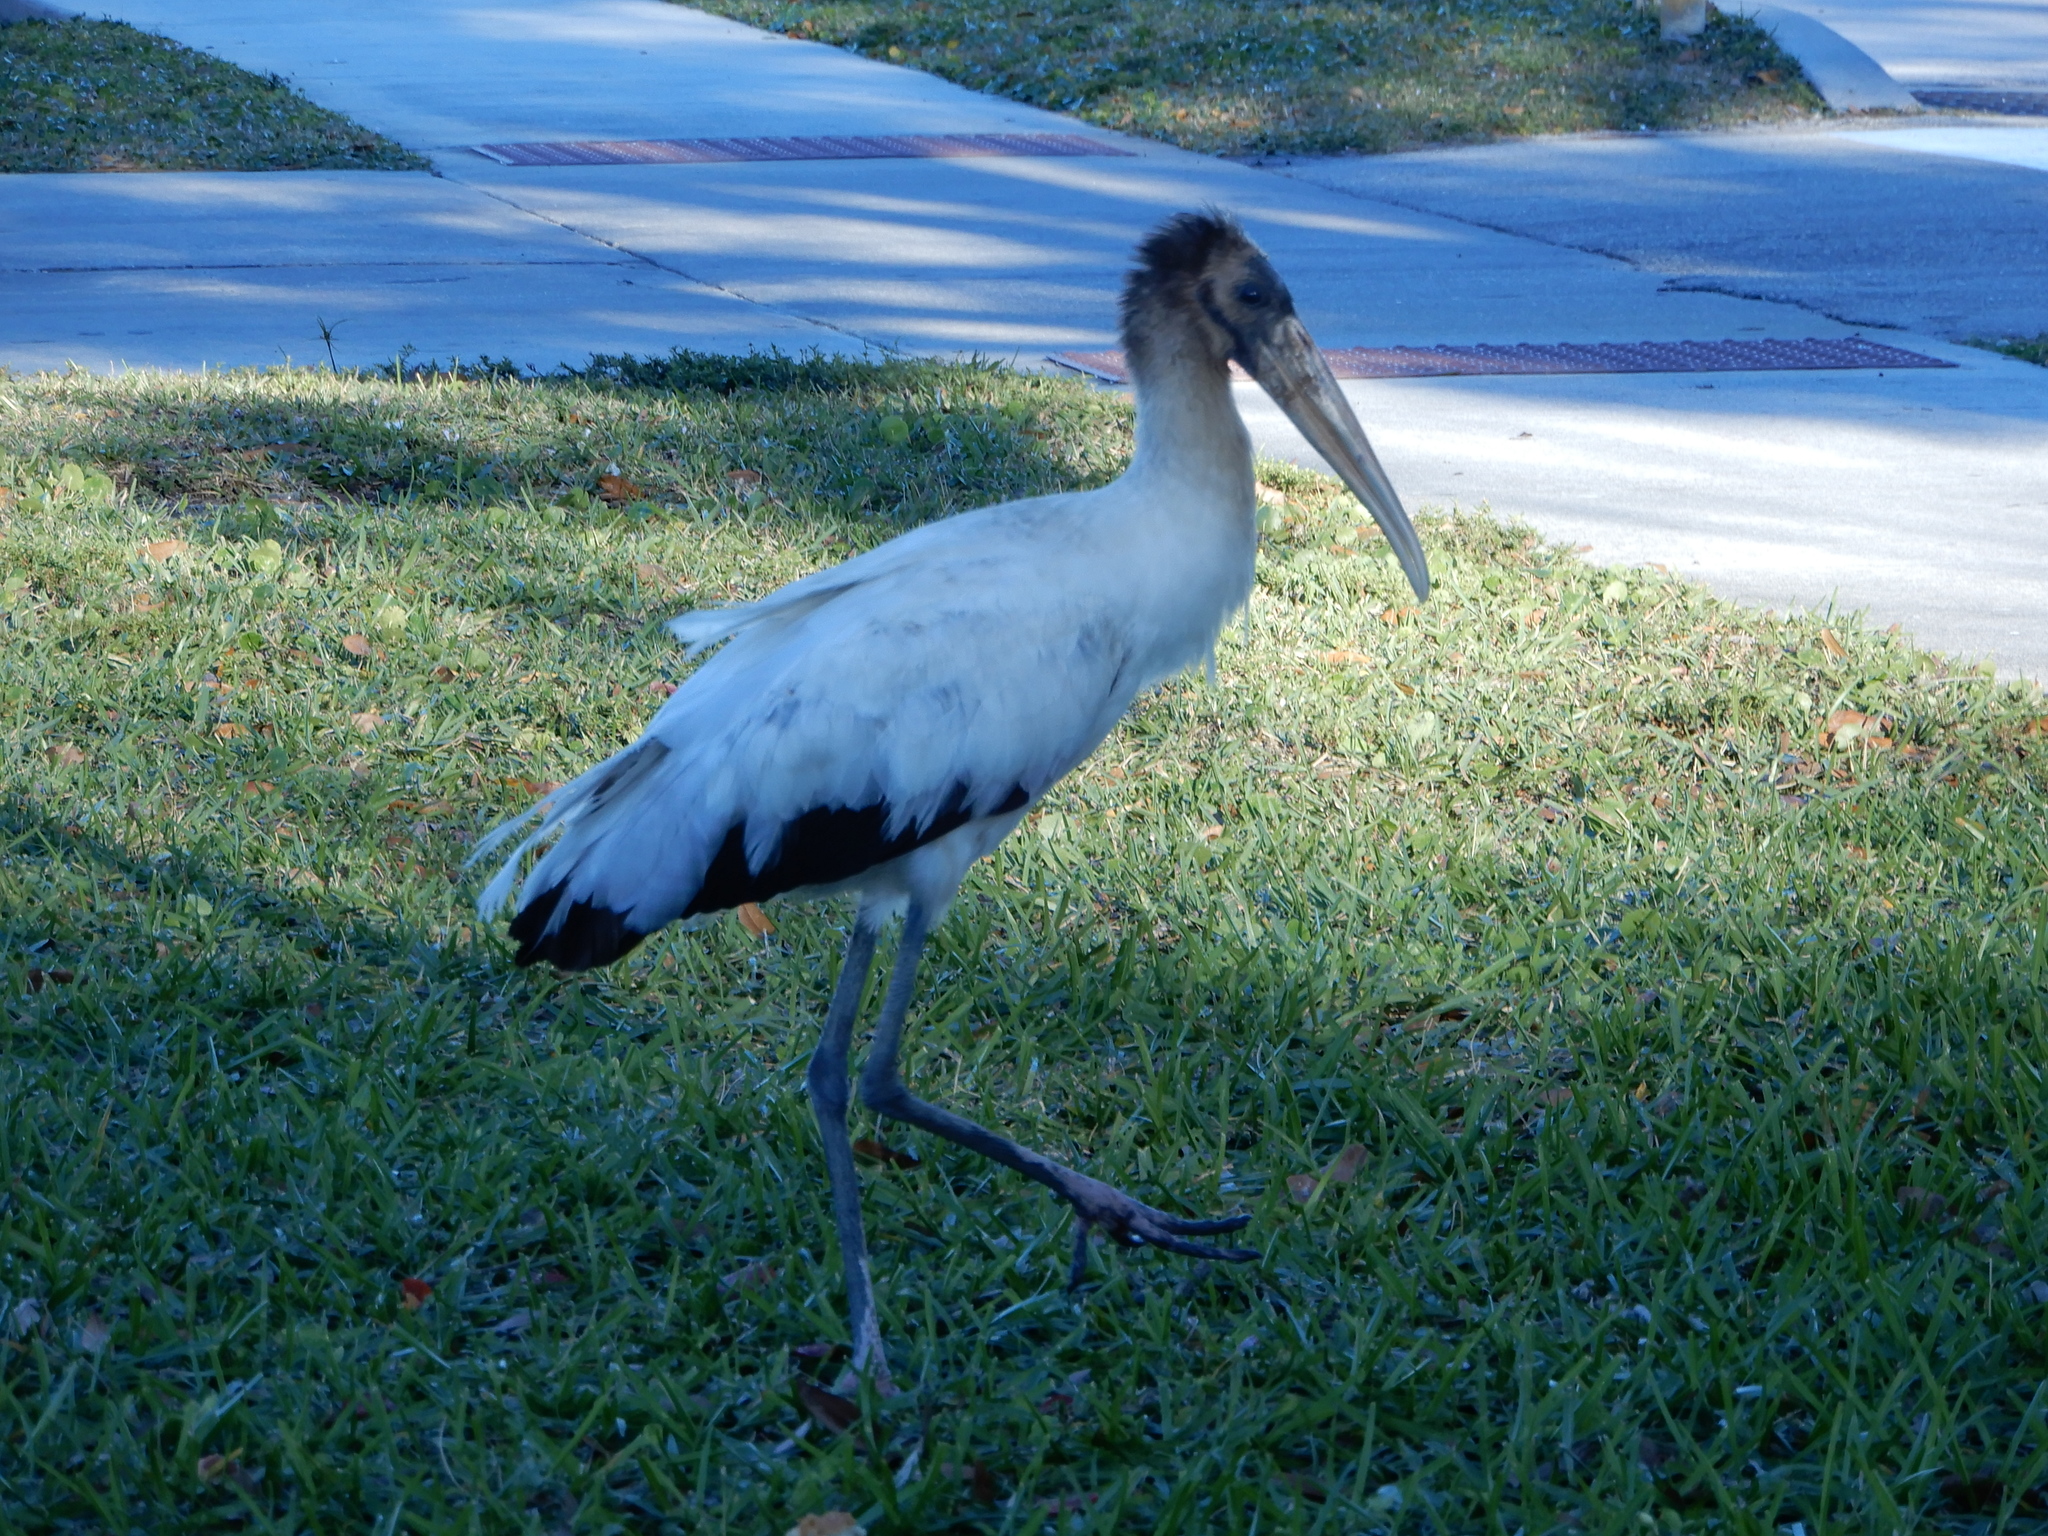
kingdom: Animalia
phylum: Chordata
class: Aves
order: Ciconiiformes
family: Ciconiidae
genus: Mycteria
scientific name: Mycteria americana
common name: Wood stork
